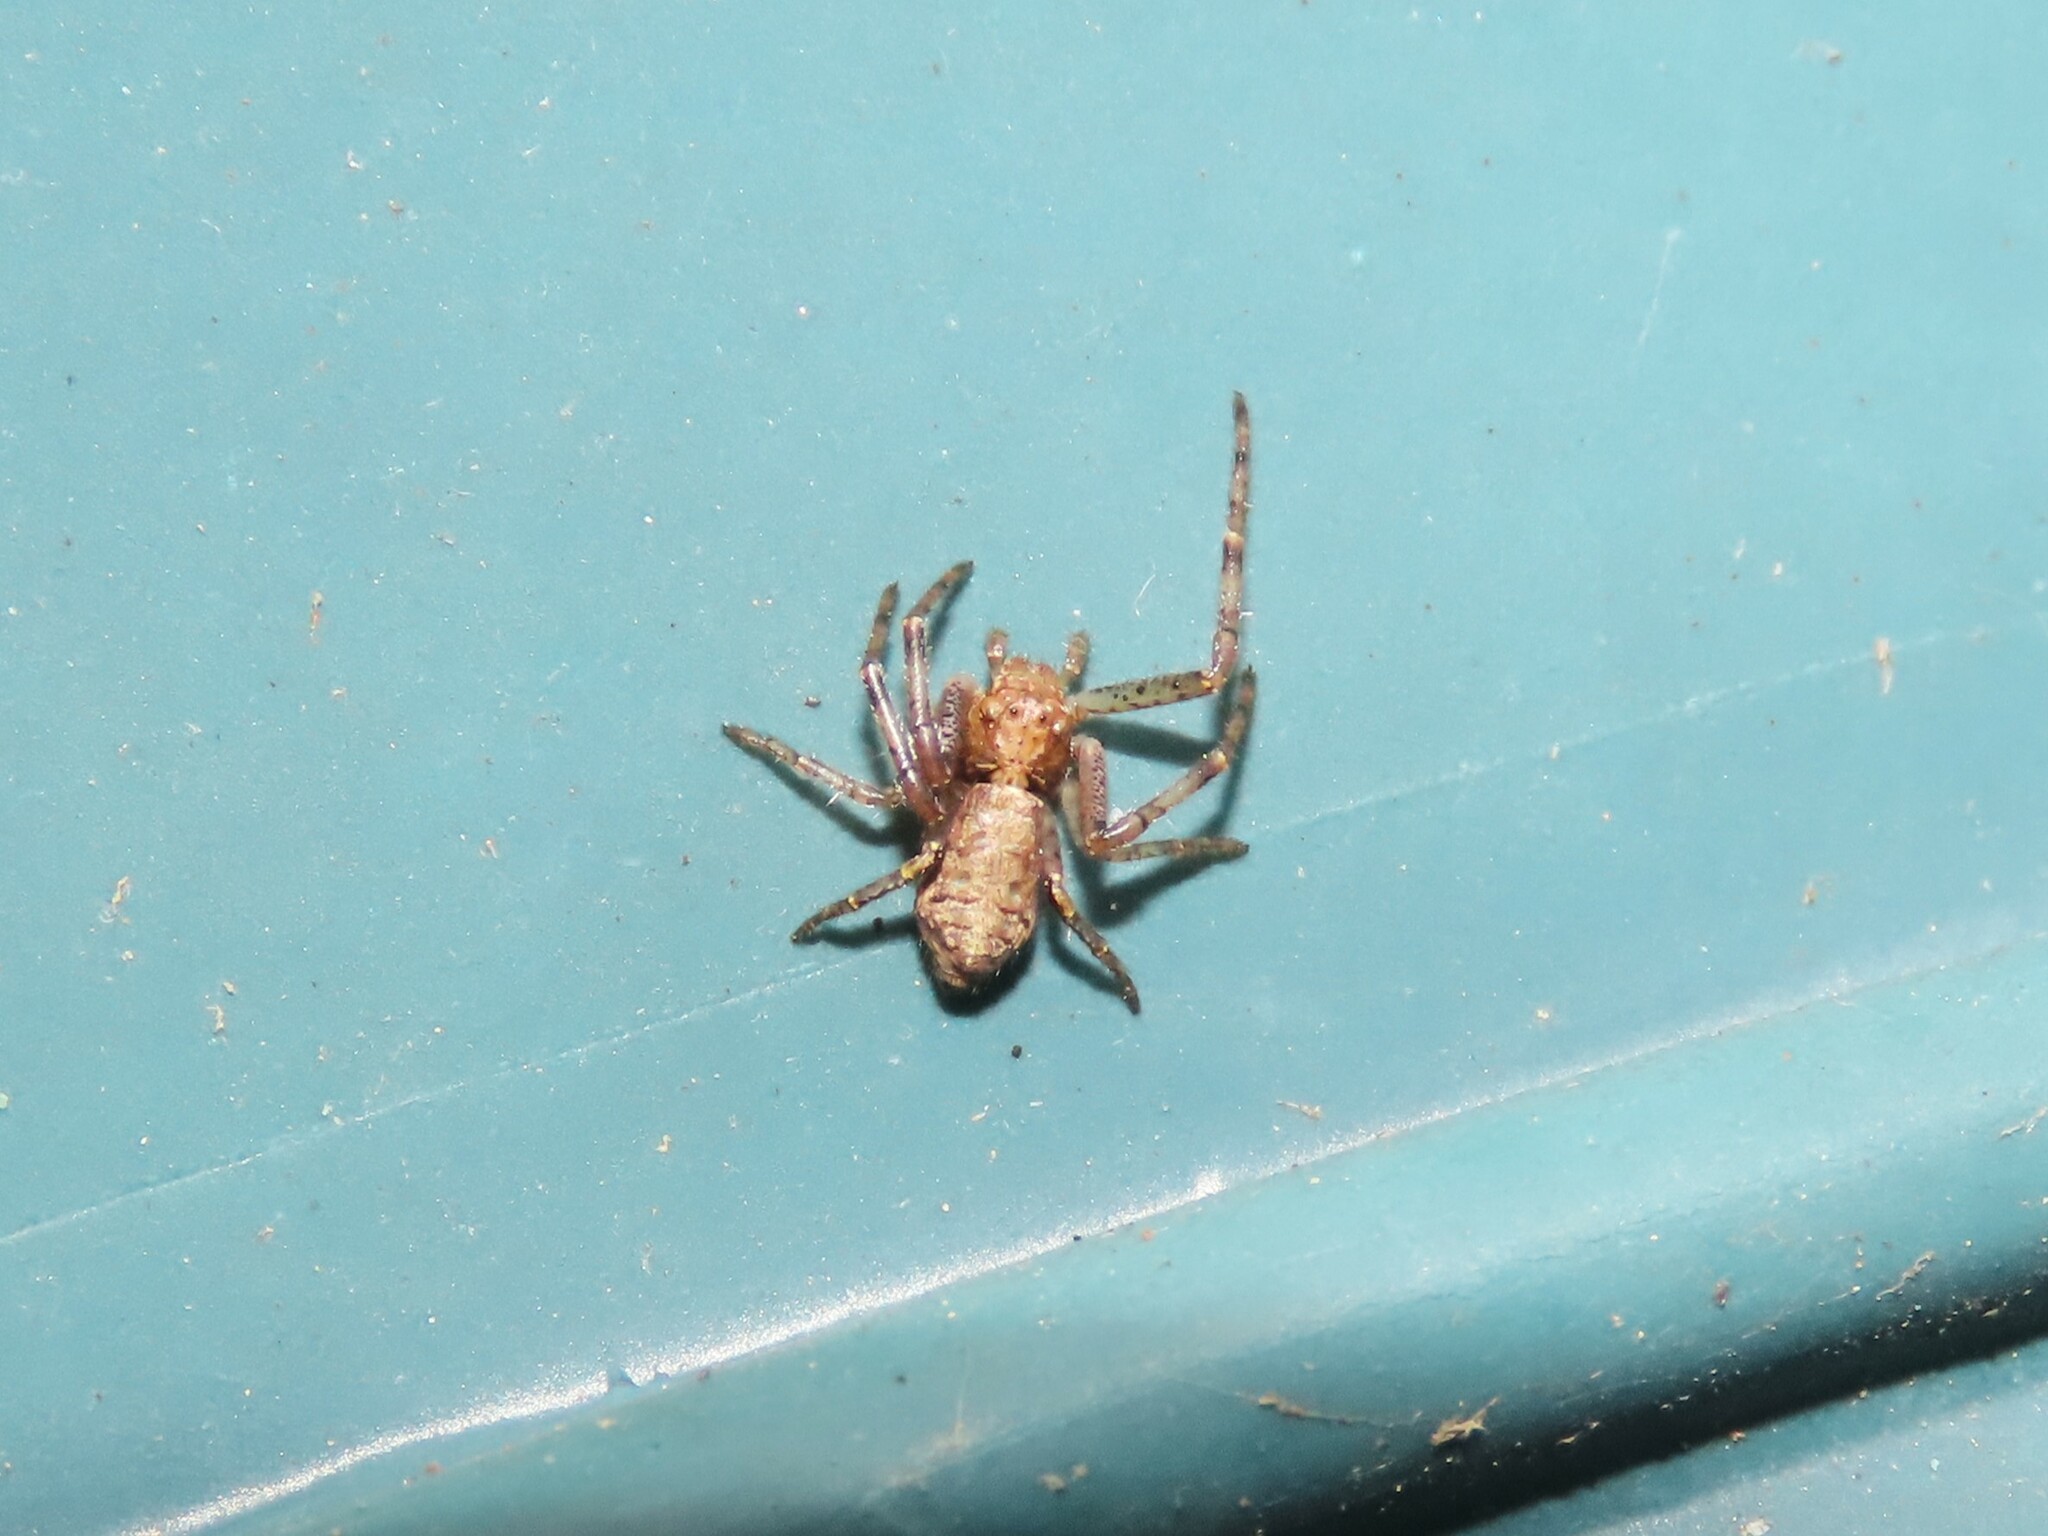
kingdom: Animalia
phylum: Arthropoda
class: Arachnida
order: Araneae
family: Thomisidae
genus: Tmarus
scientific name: Tmarus angulatus
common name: Tuberculated crab spider
